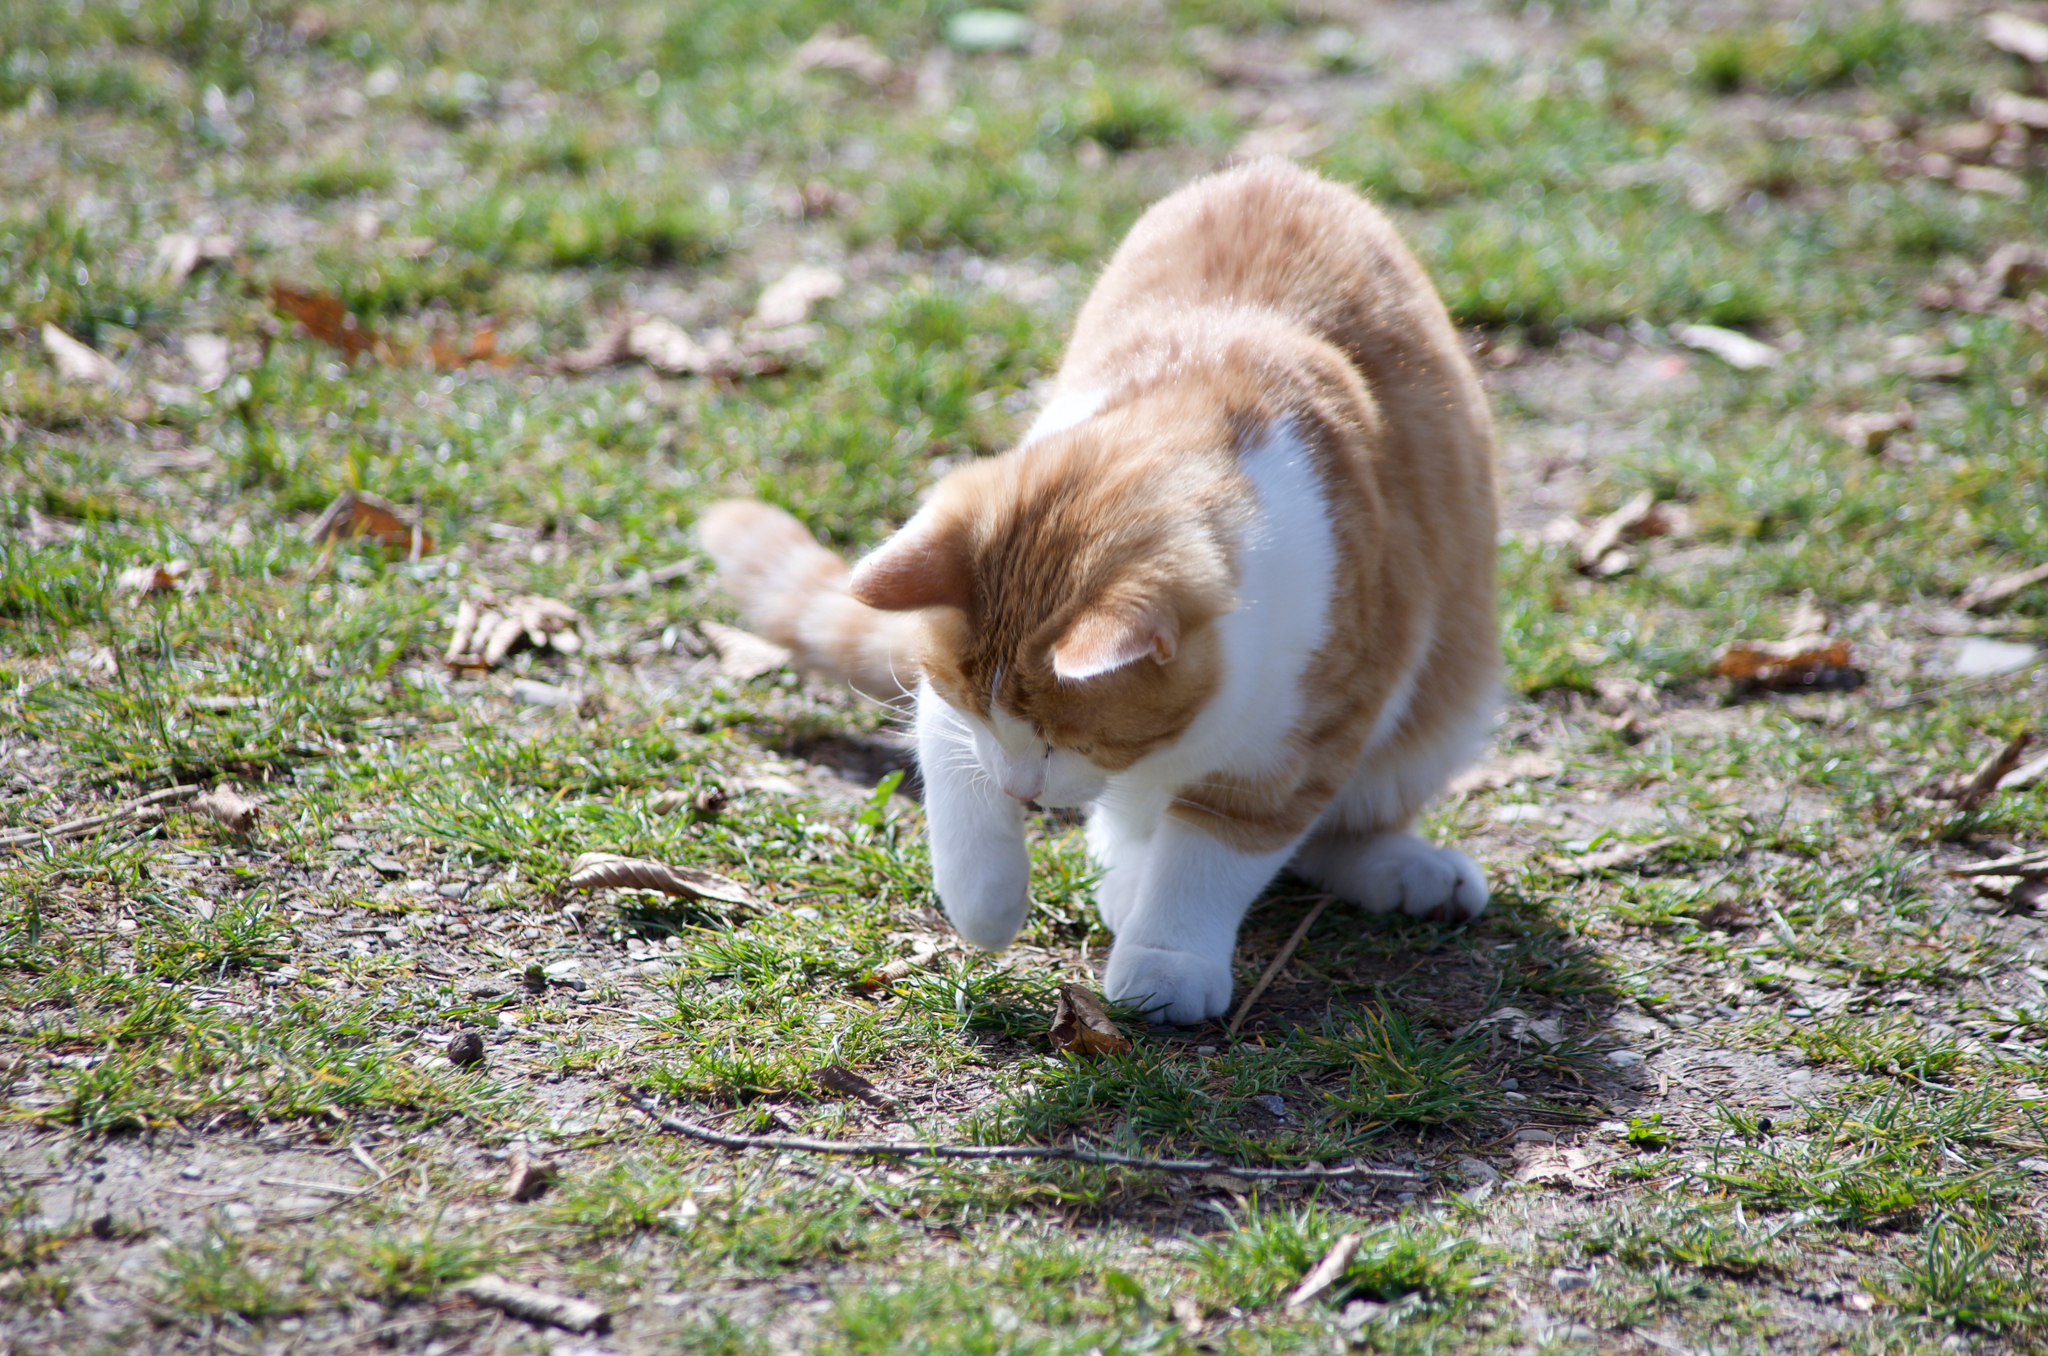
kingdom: Animalia
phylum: Chordata
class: Mammalia
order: Carnivora
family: Felidae
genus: Felis
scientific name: Felis catus
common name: Domestic cat
